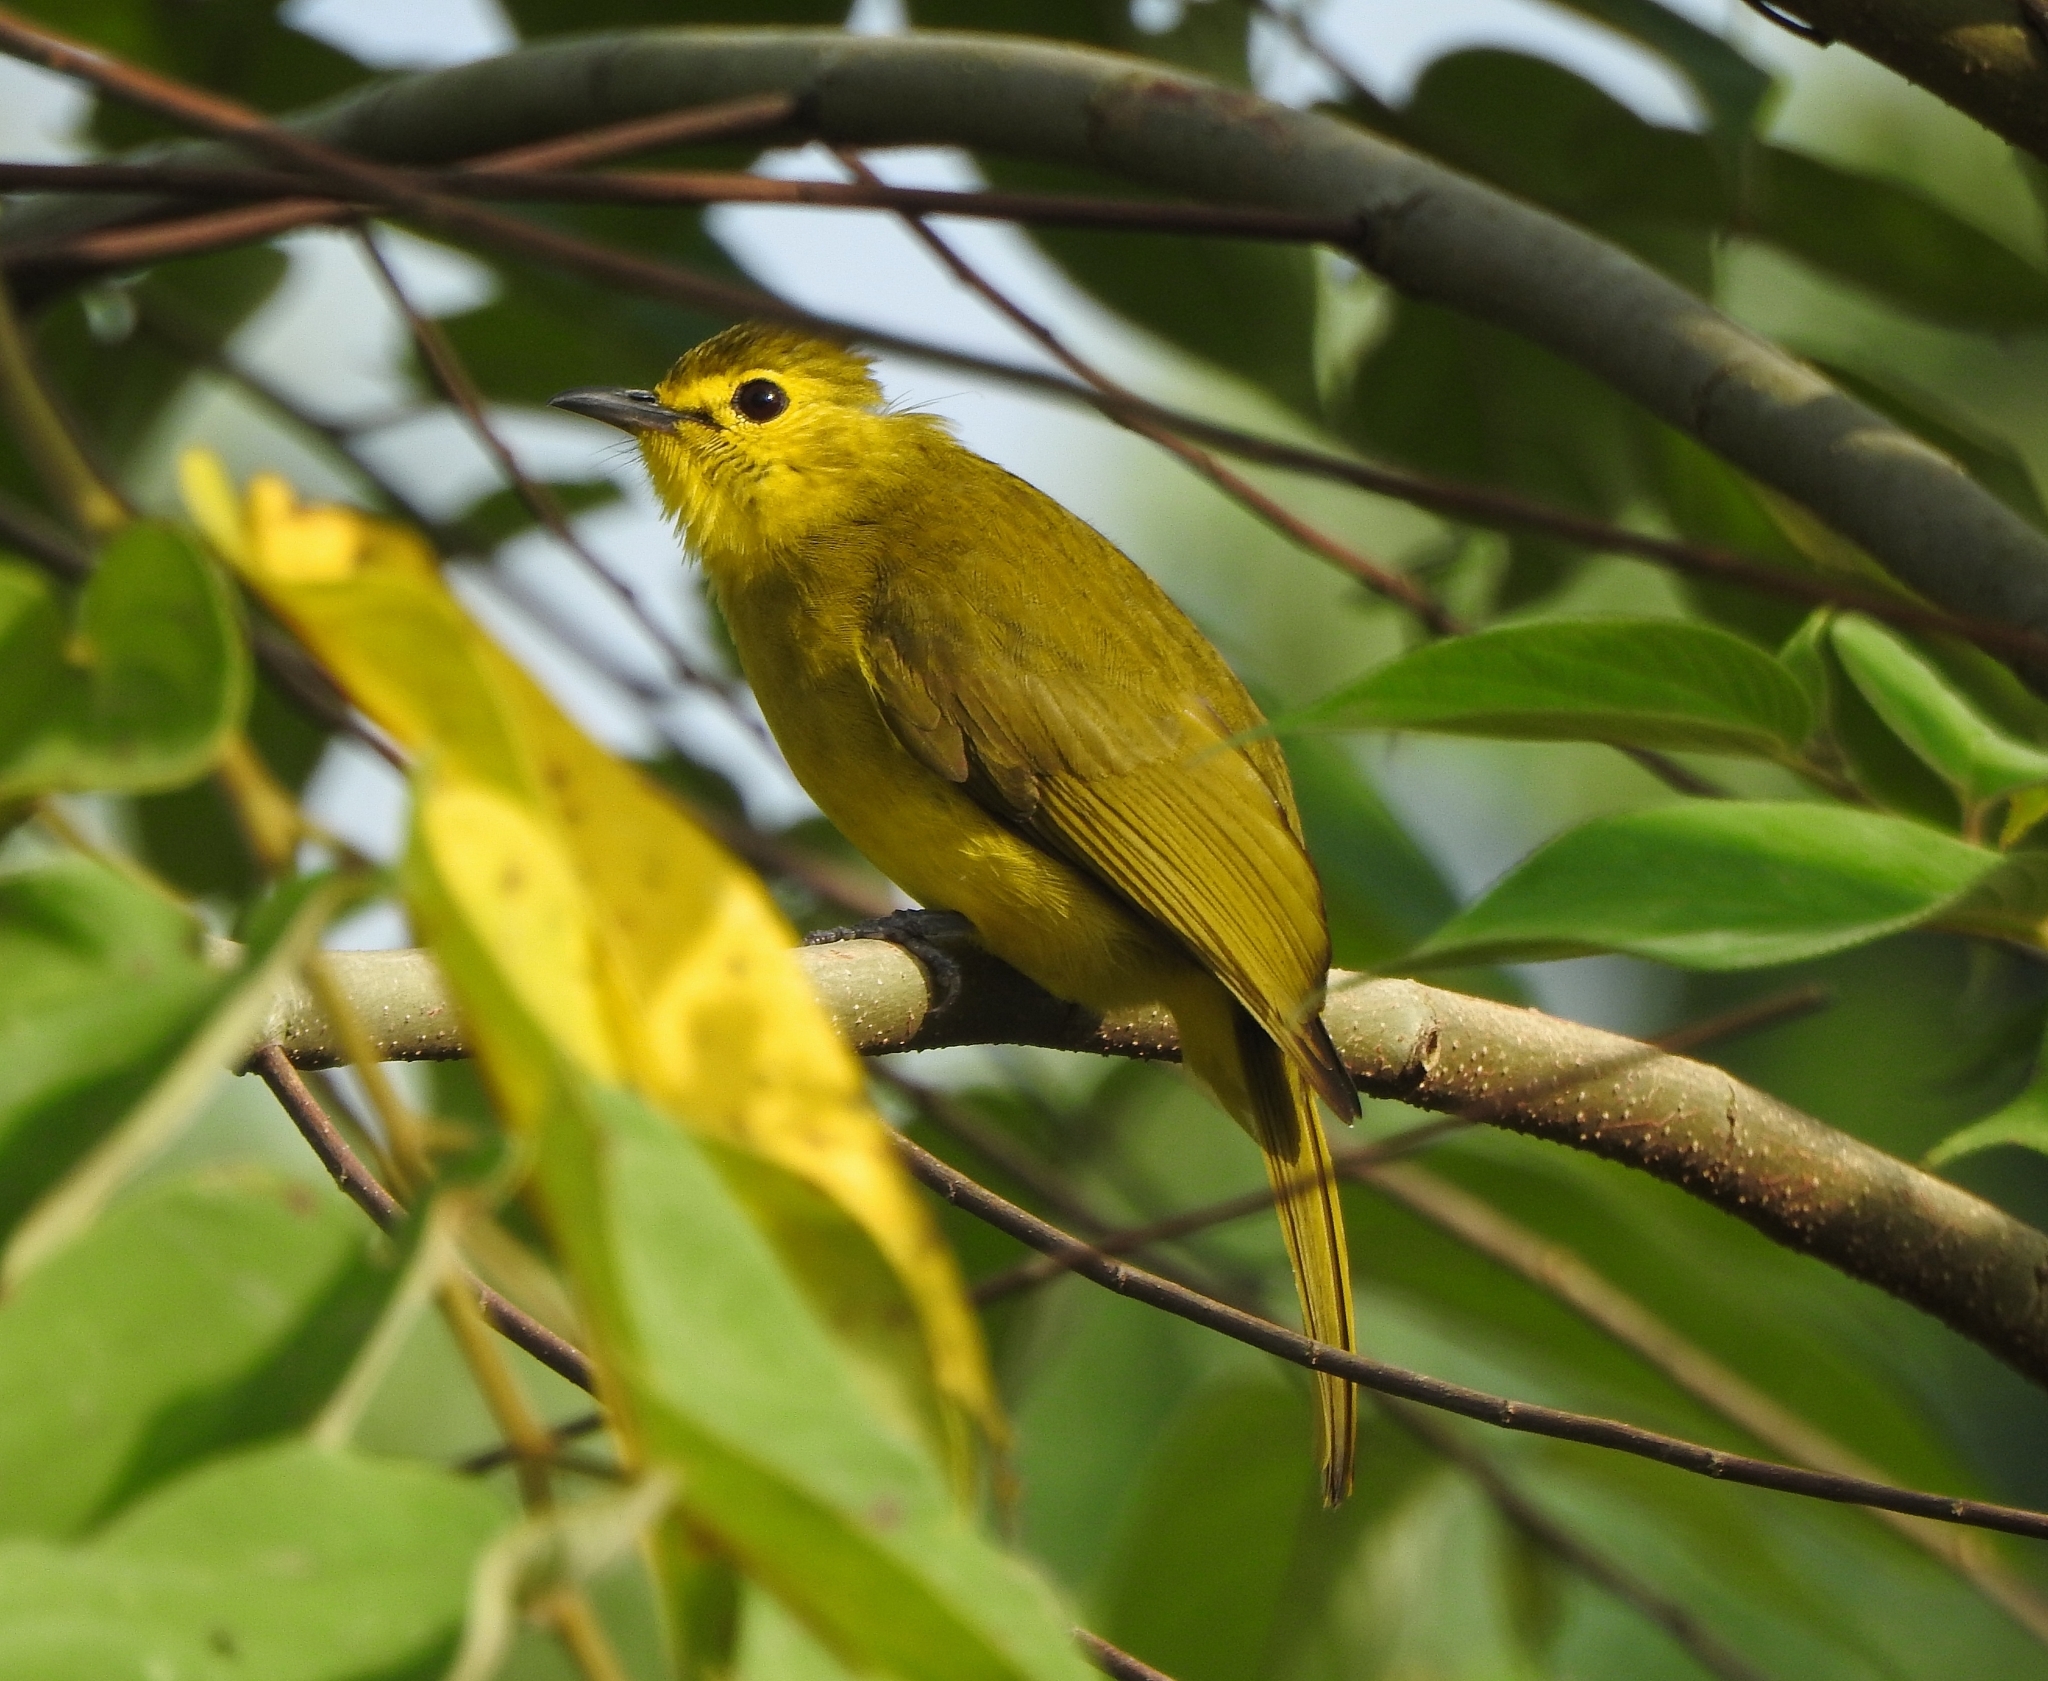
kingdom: Animalia
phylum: Chordata
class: Aves
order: Passeriformes
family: Pycnonotidae
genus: Acritillas
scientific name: Acritillas indica
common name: Yellow-browed bulbul
